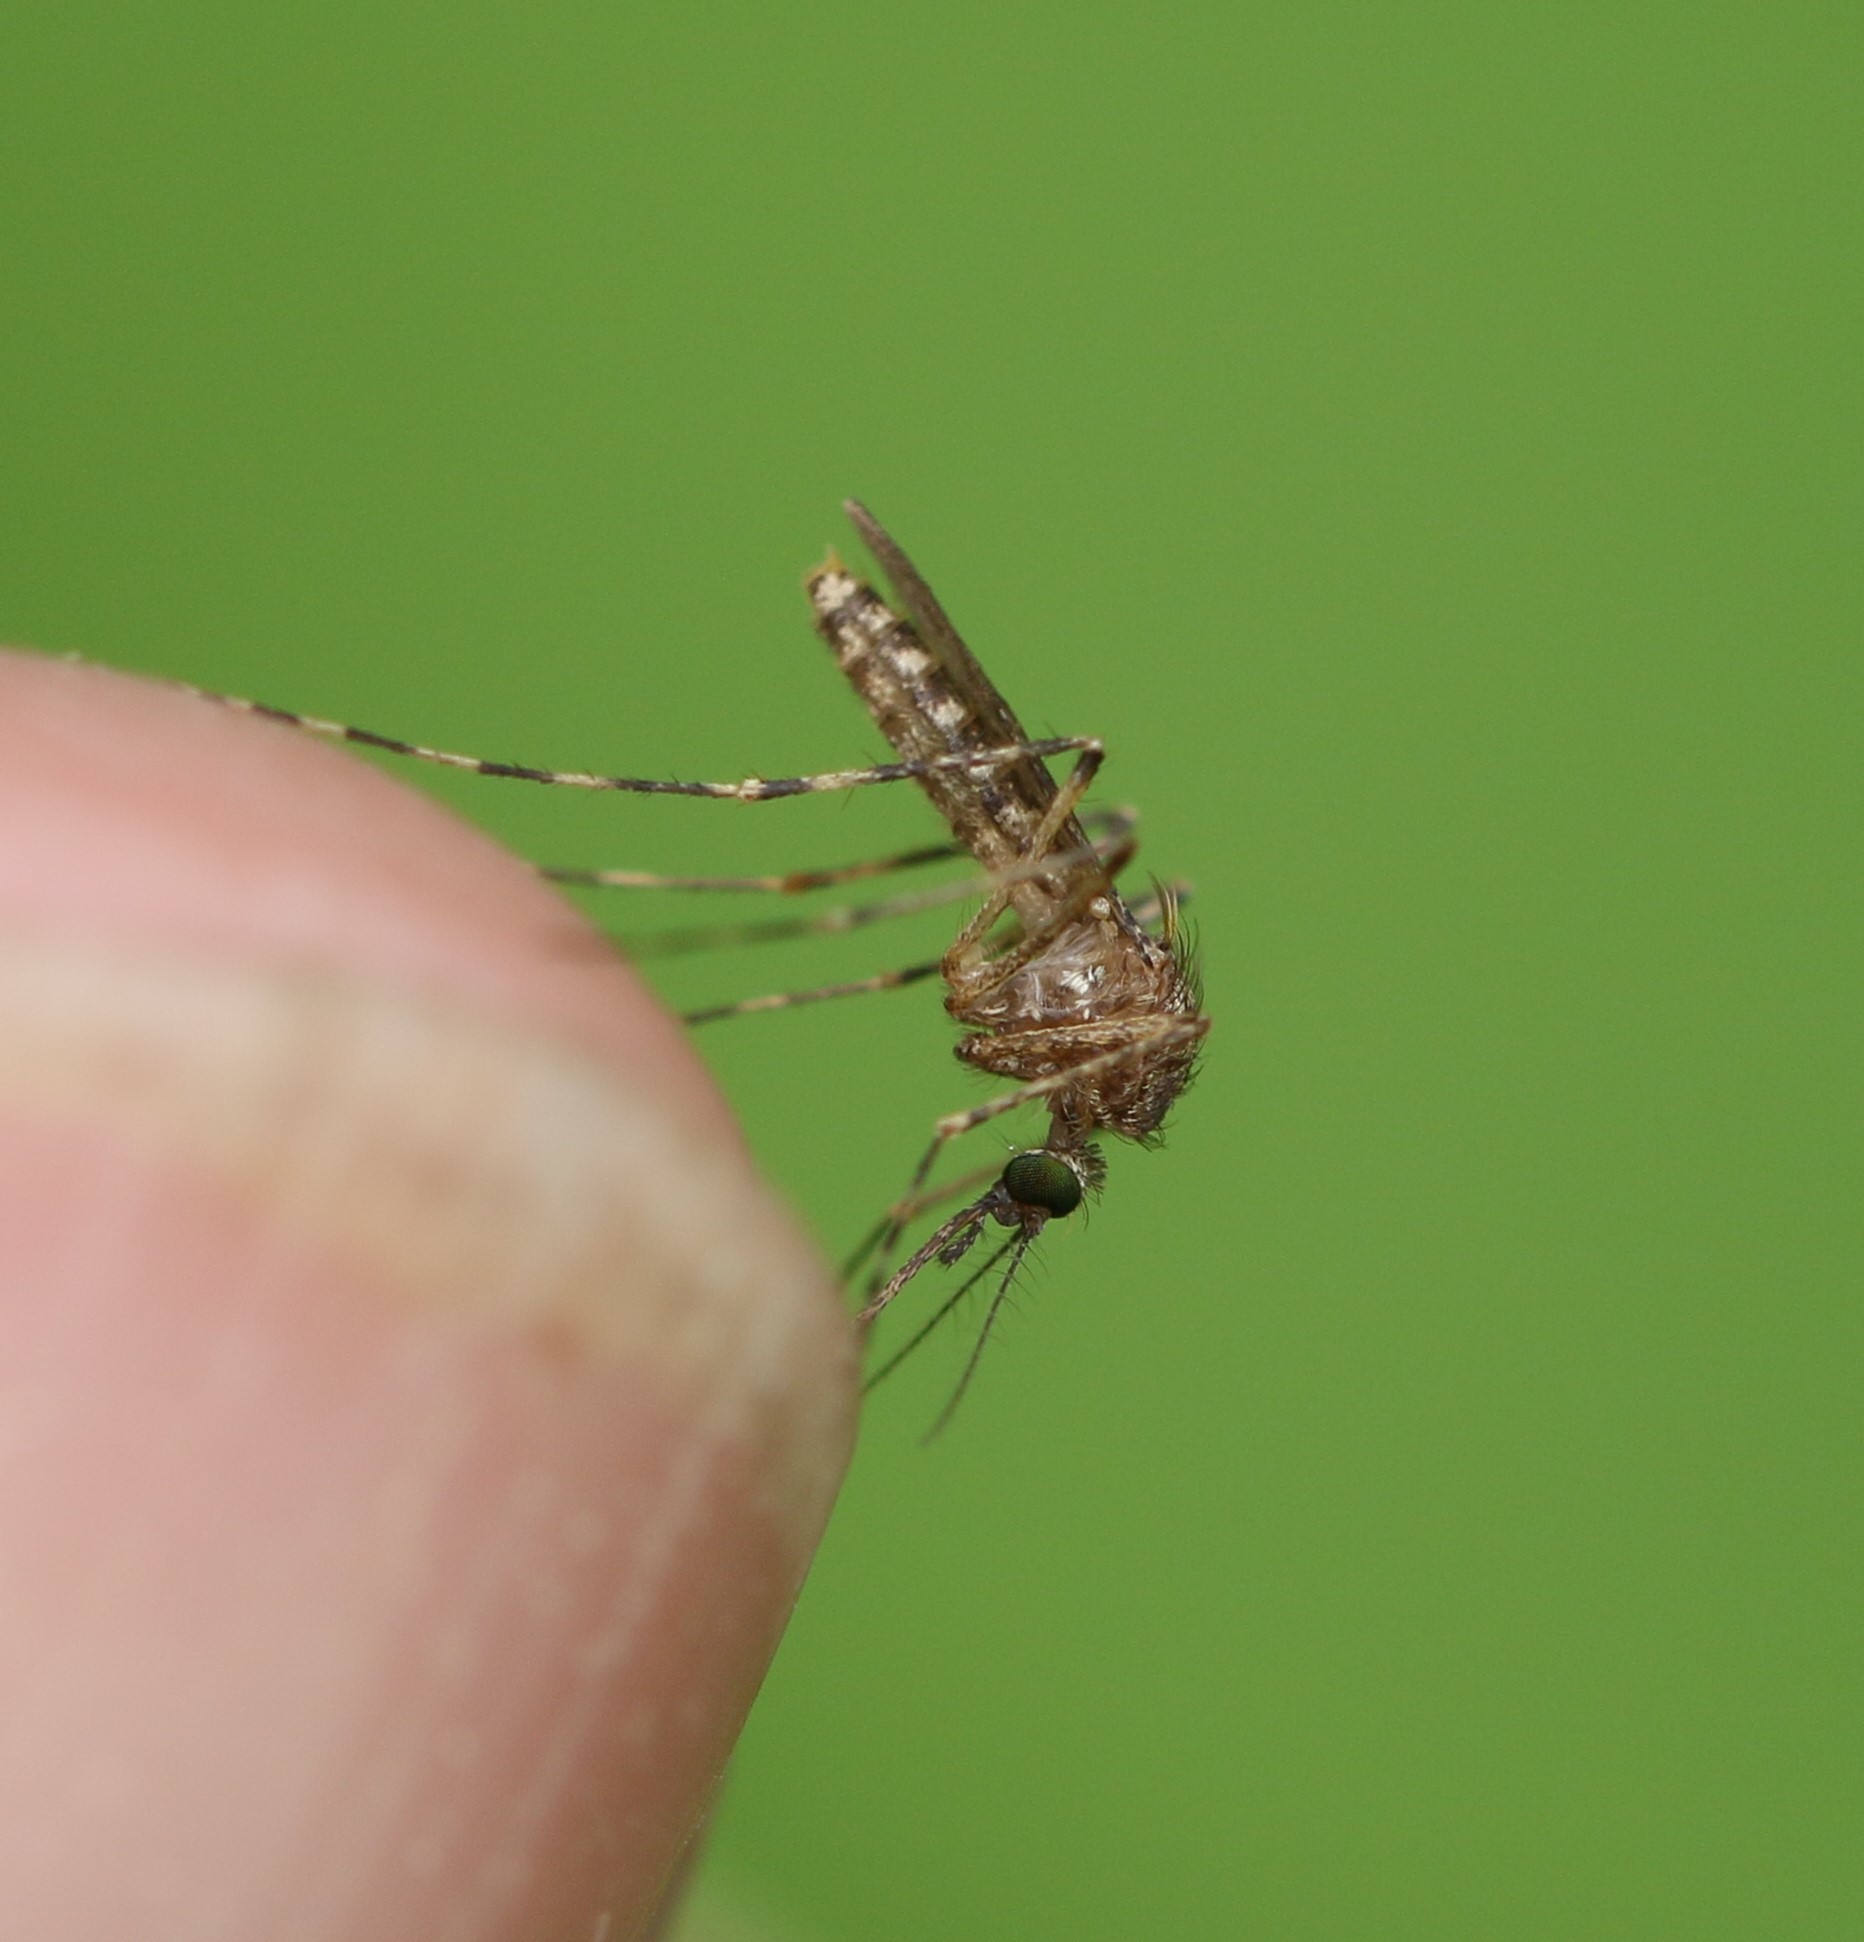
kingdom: Animalia
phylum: Arthropoda
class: Insecta
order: Diptera
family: Culicidae
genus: Coquillettidia
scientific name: Coquillettidia perturbans
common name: Cattail mosquito
